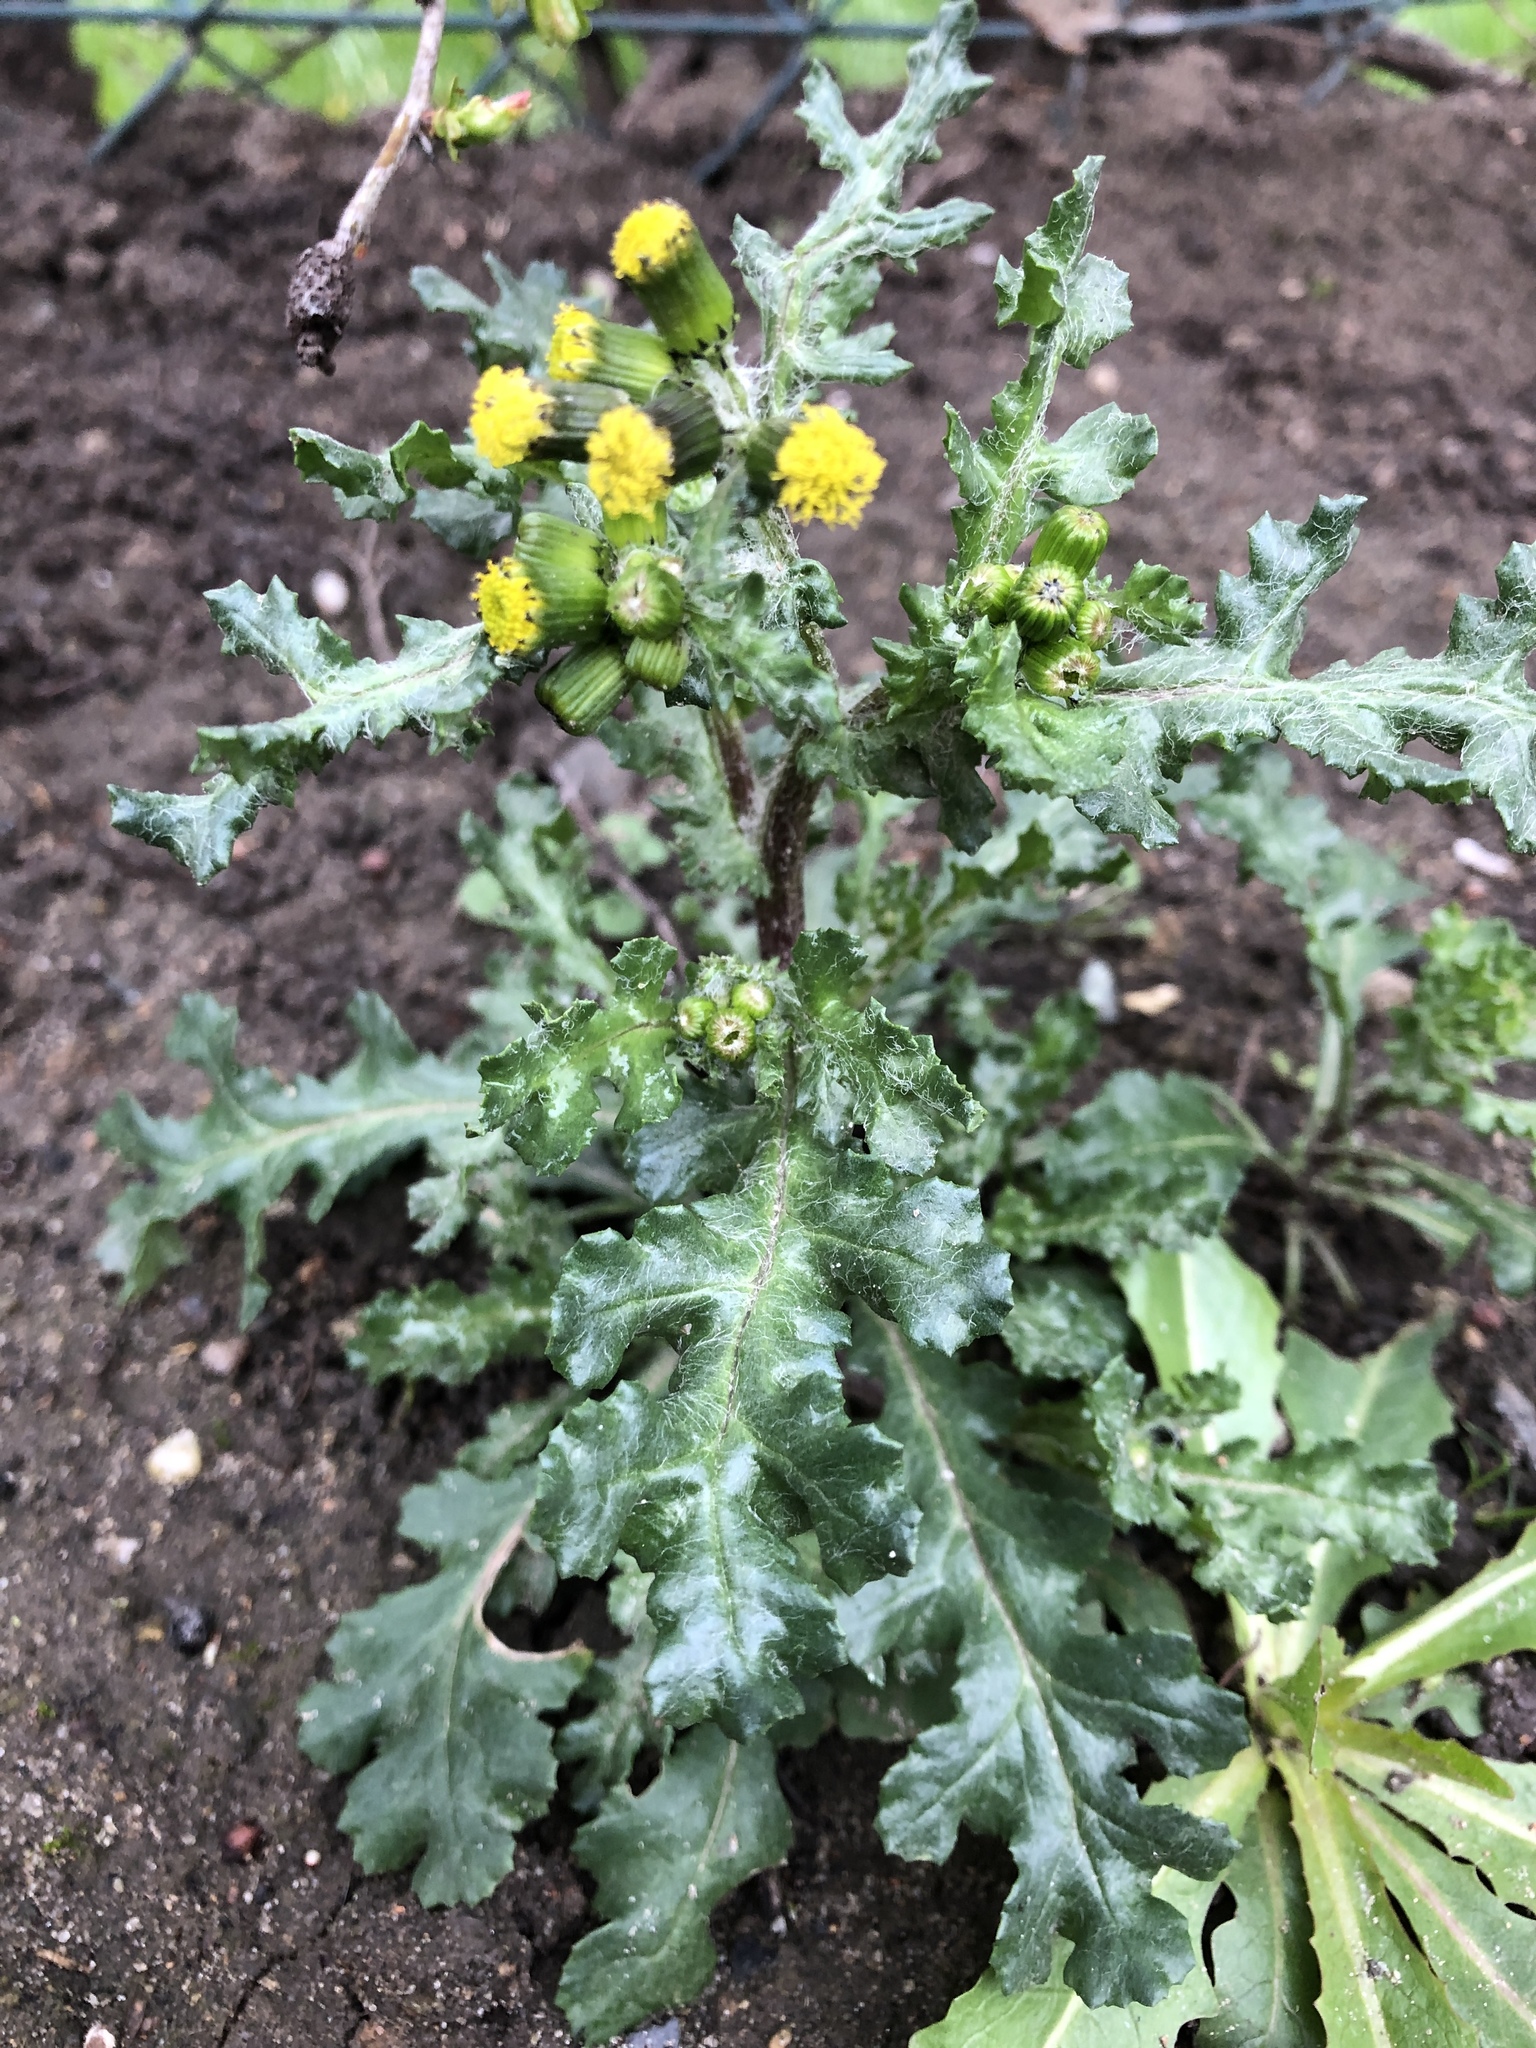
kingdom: Plantae
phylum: Tracheophyta
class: Magnoliopsida
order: Asterales
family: Asteraceae
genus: Senecio
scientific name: Senecio vulgaris
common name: Old-man-in-the-spring
